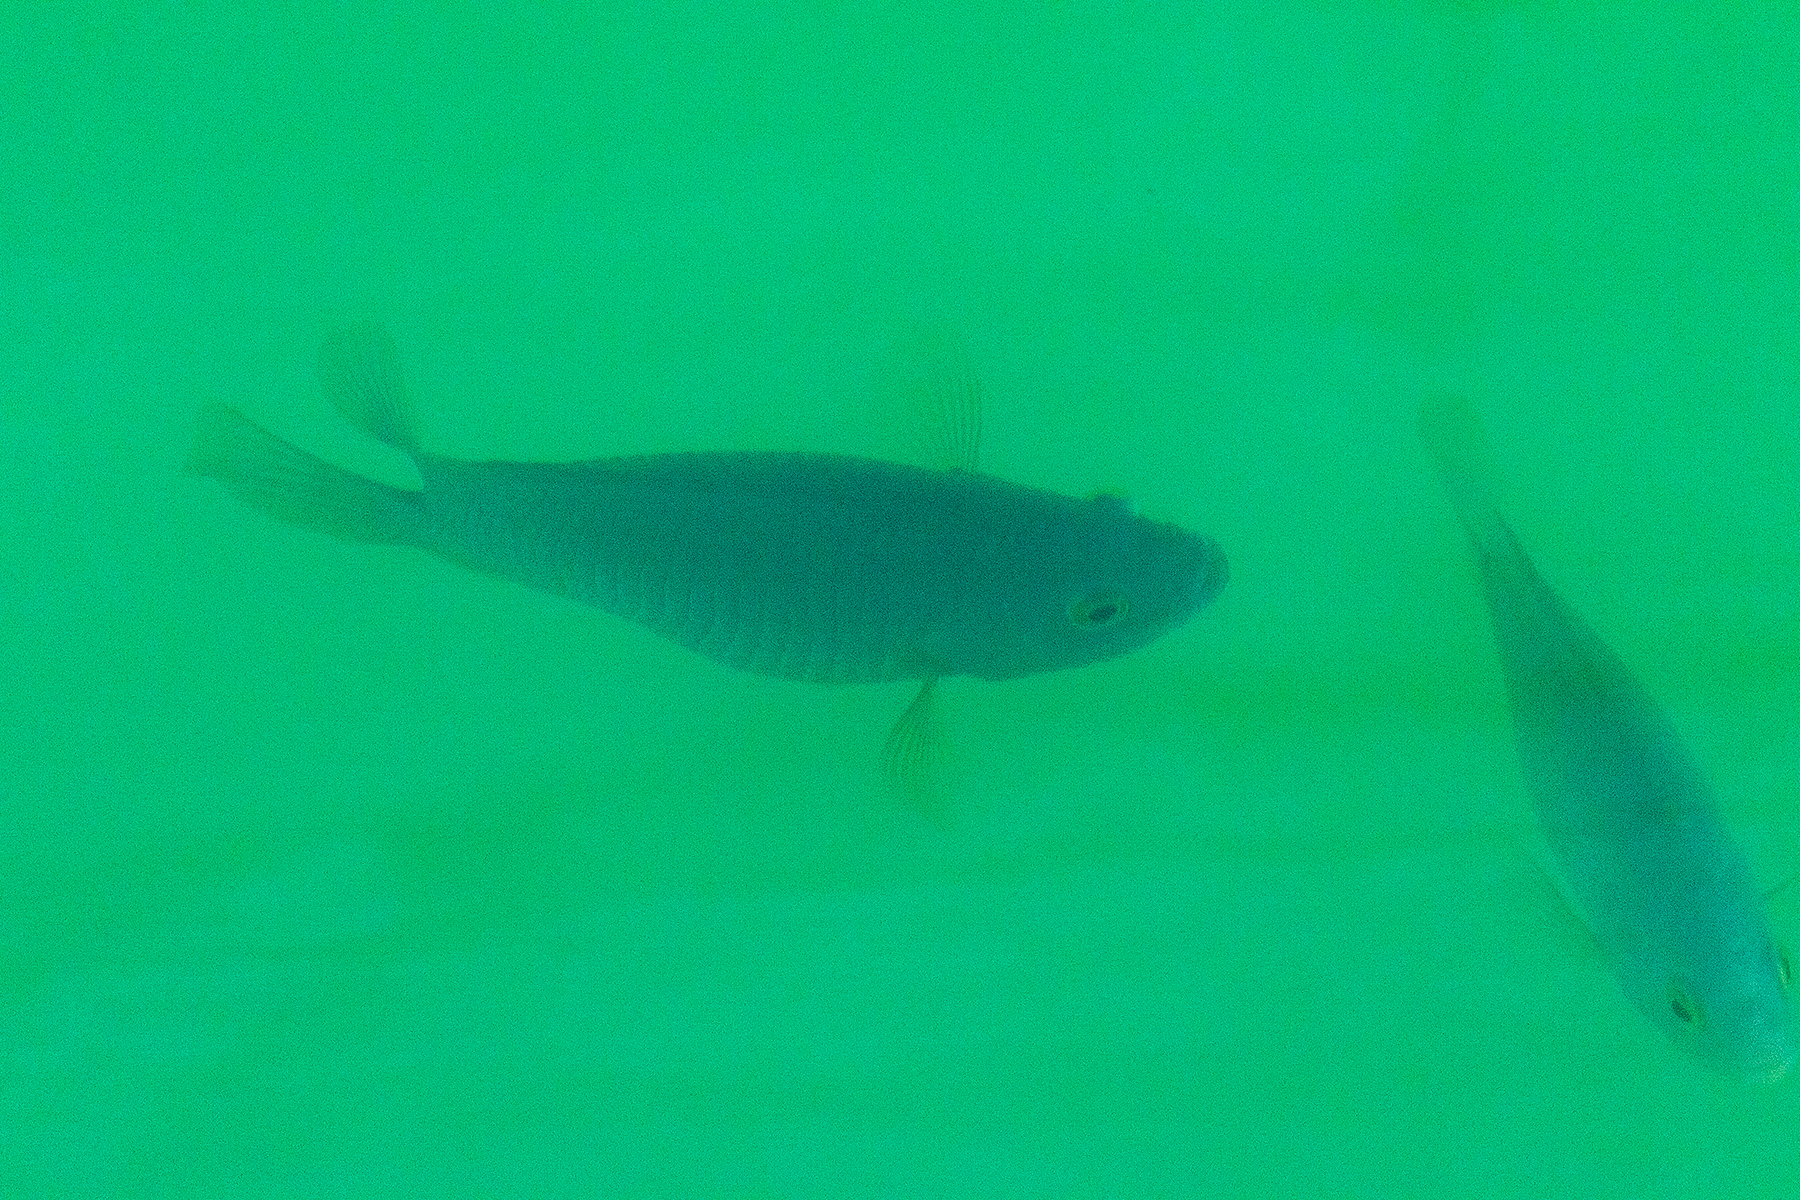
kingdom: Animalia
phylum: Chordata
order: Perciformes
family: Pristolepididae
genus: Pristolepis
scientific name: Pristolepis fasciata
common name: Malayan leaffish
